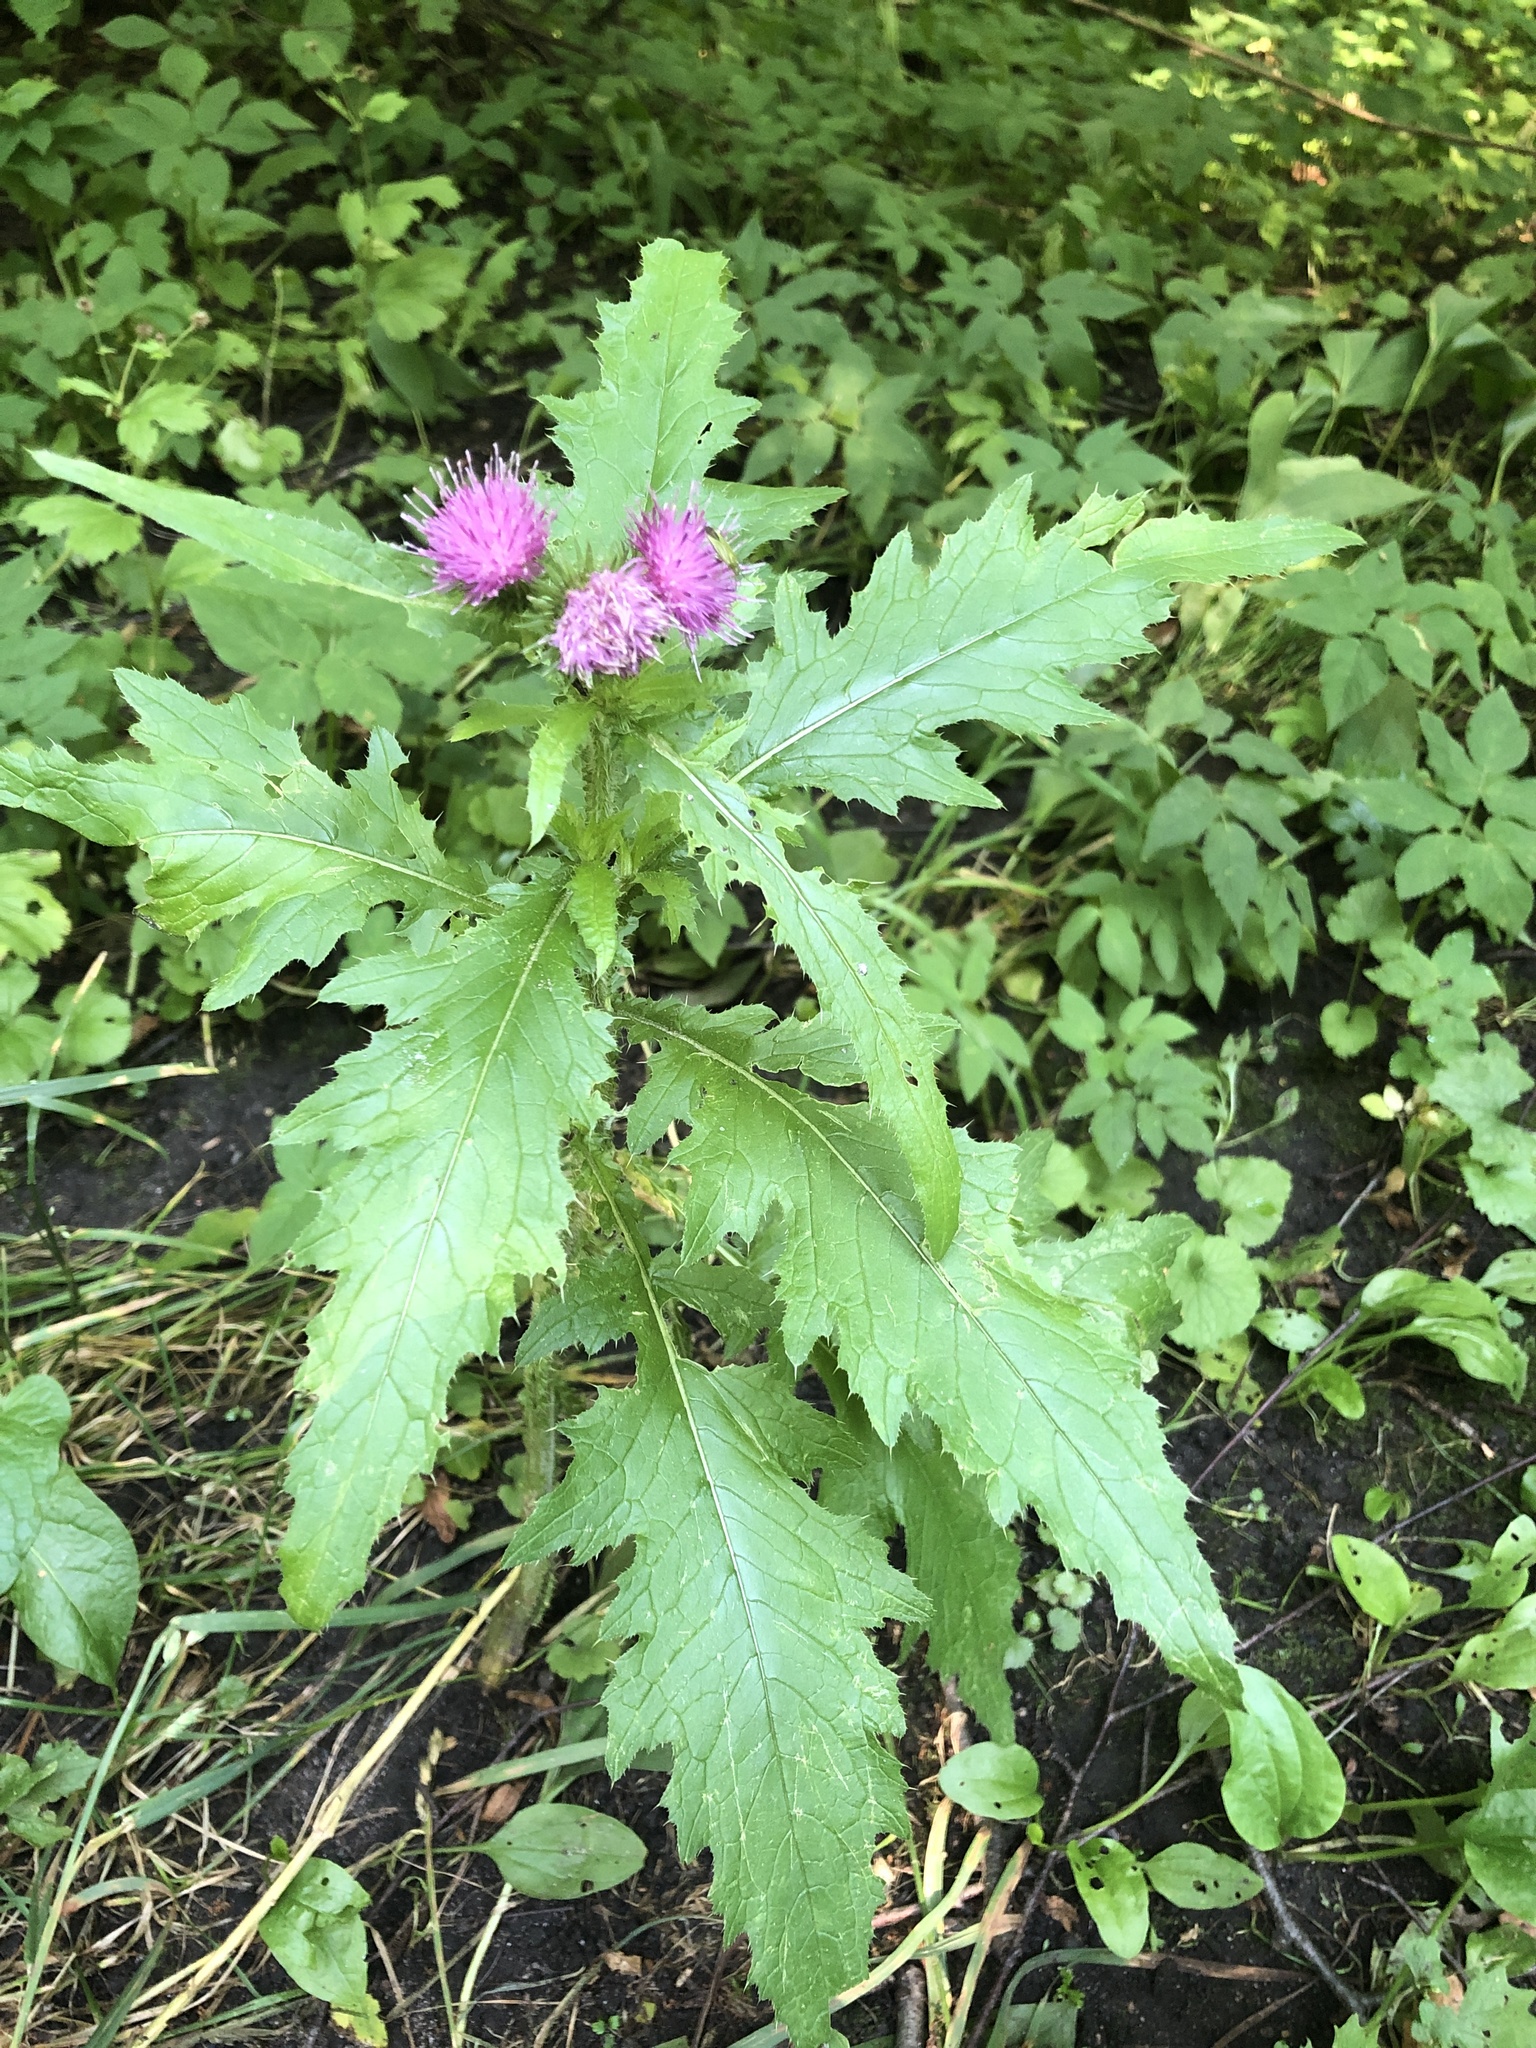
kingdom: Plantae
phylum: Tracheophyta
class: Magnoliopsida
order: Asterales
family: Asteraceae
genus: Carduus
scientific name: Carduus crispus
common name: Welted thistle
